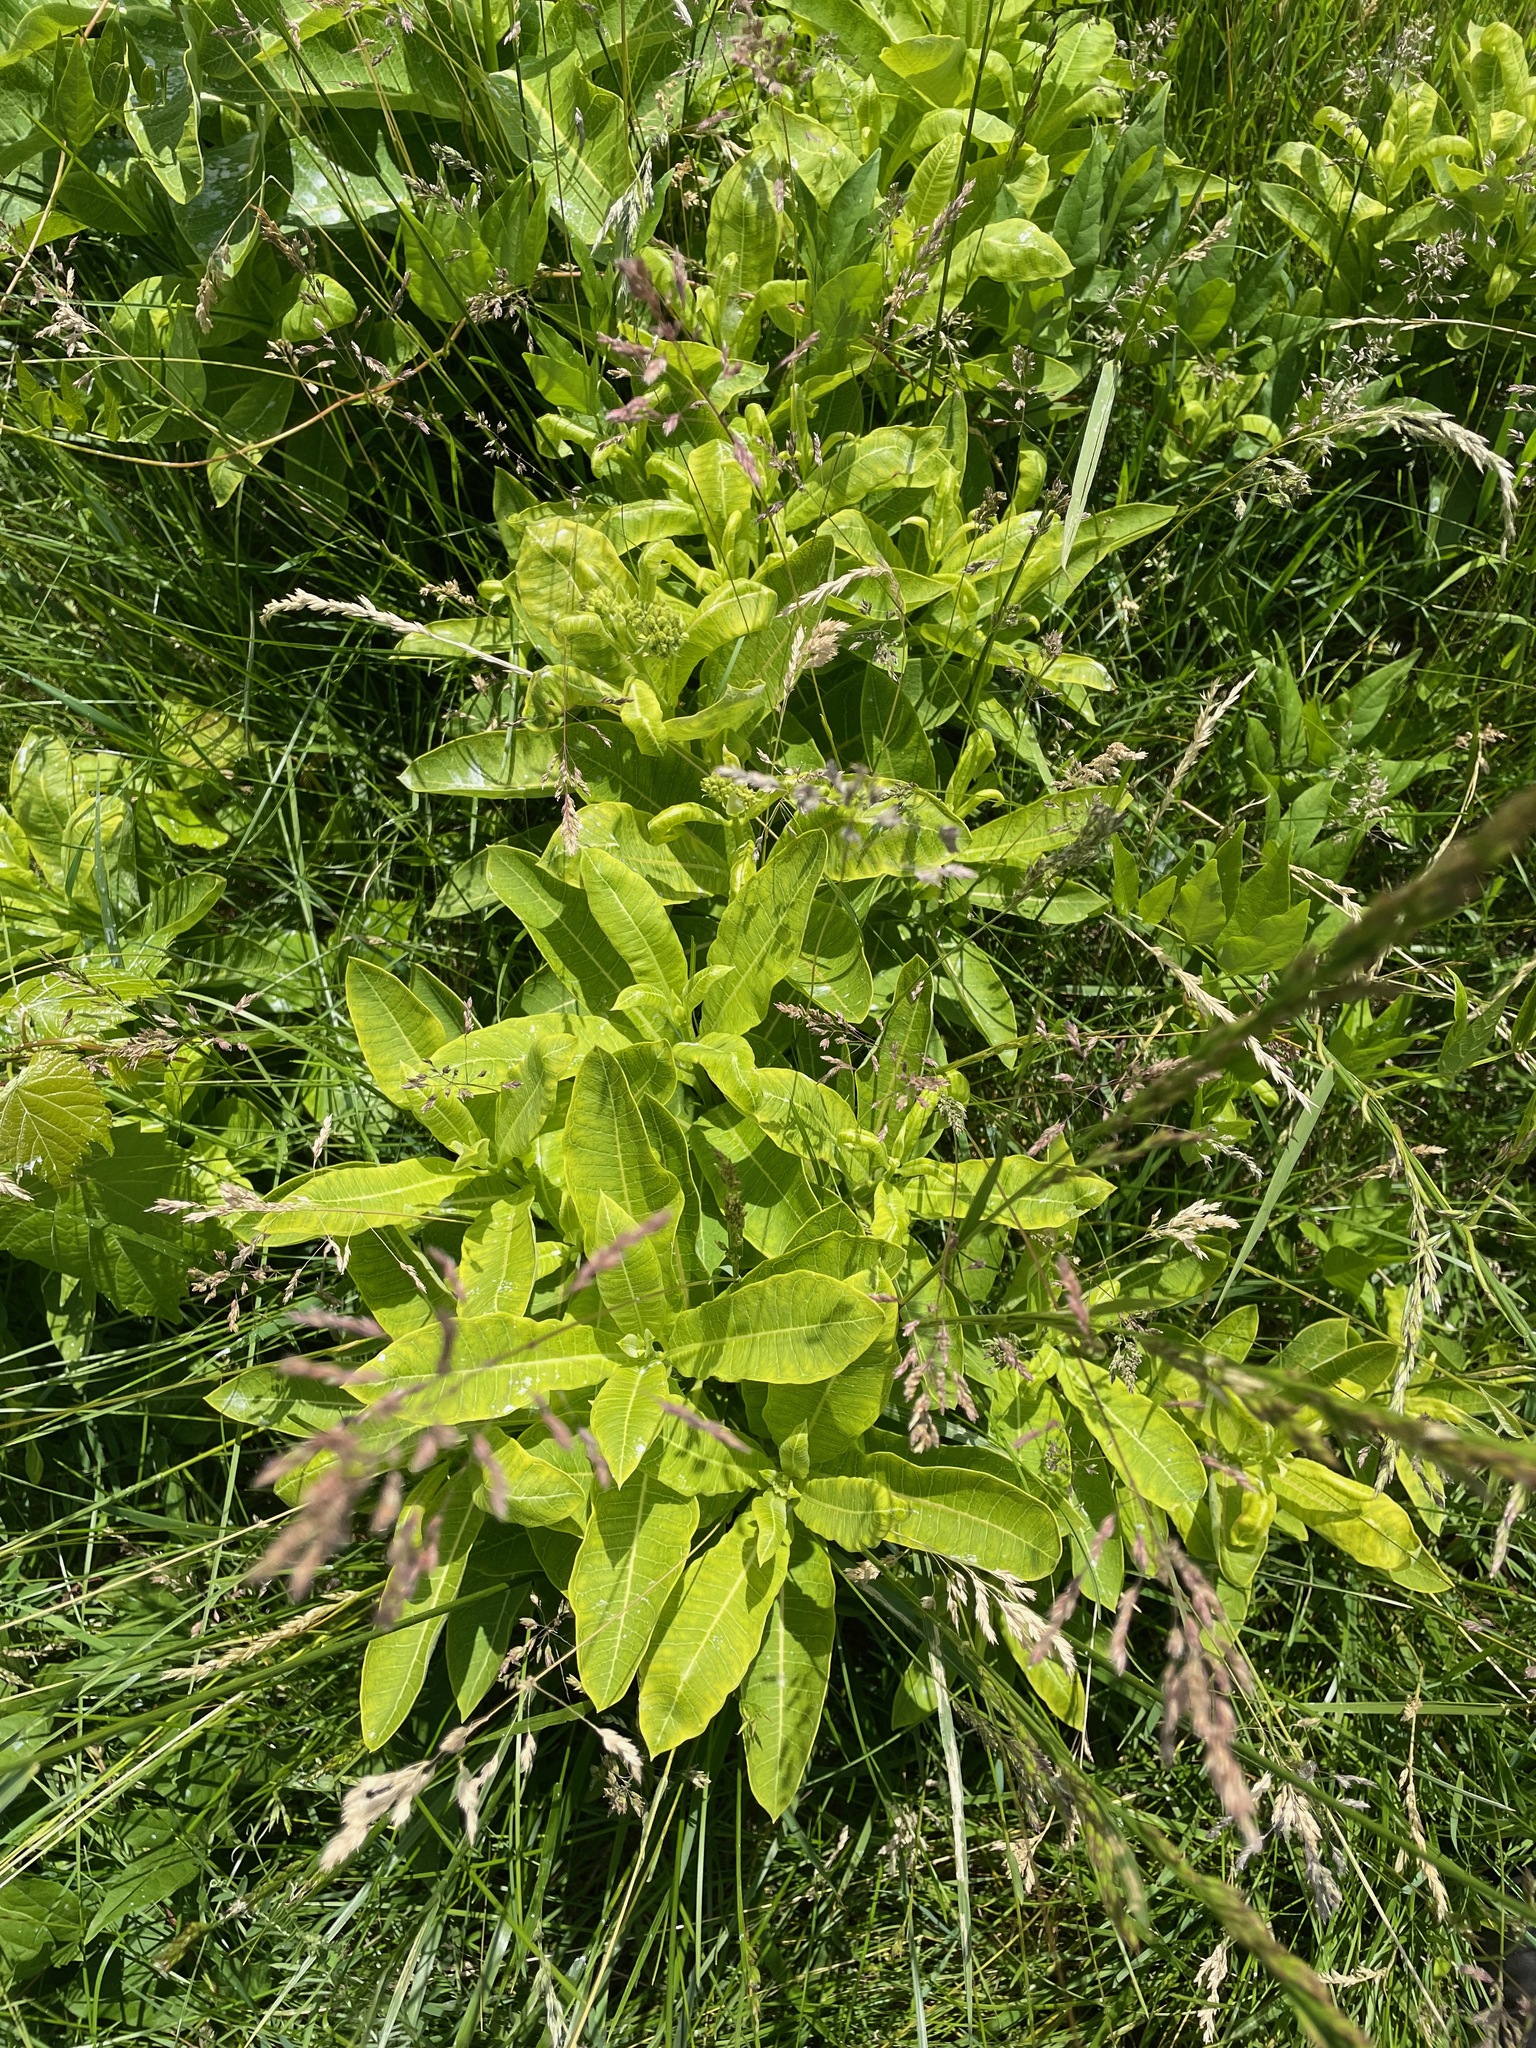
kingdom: Plantae
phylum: Tracheophyta
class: Magnoliopsida
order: Gentianales
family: Apocynaceae
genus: Asclepias
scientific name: Asclepias syriaca
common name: Common milkweed
